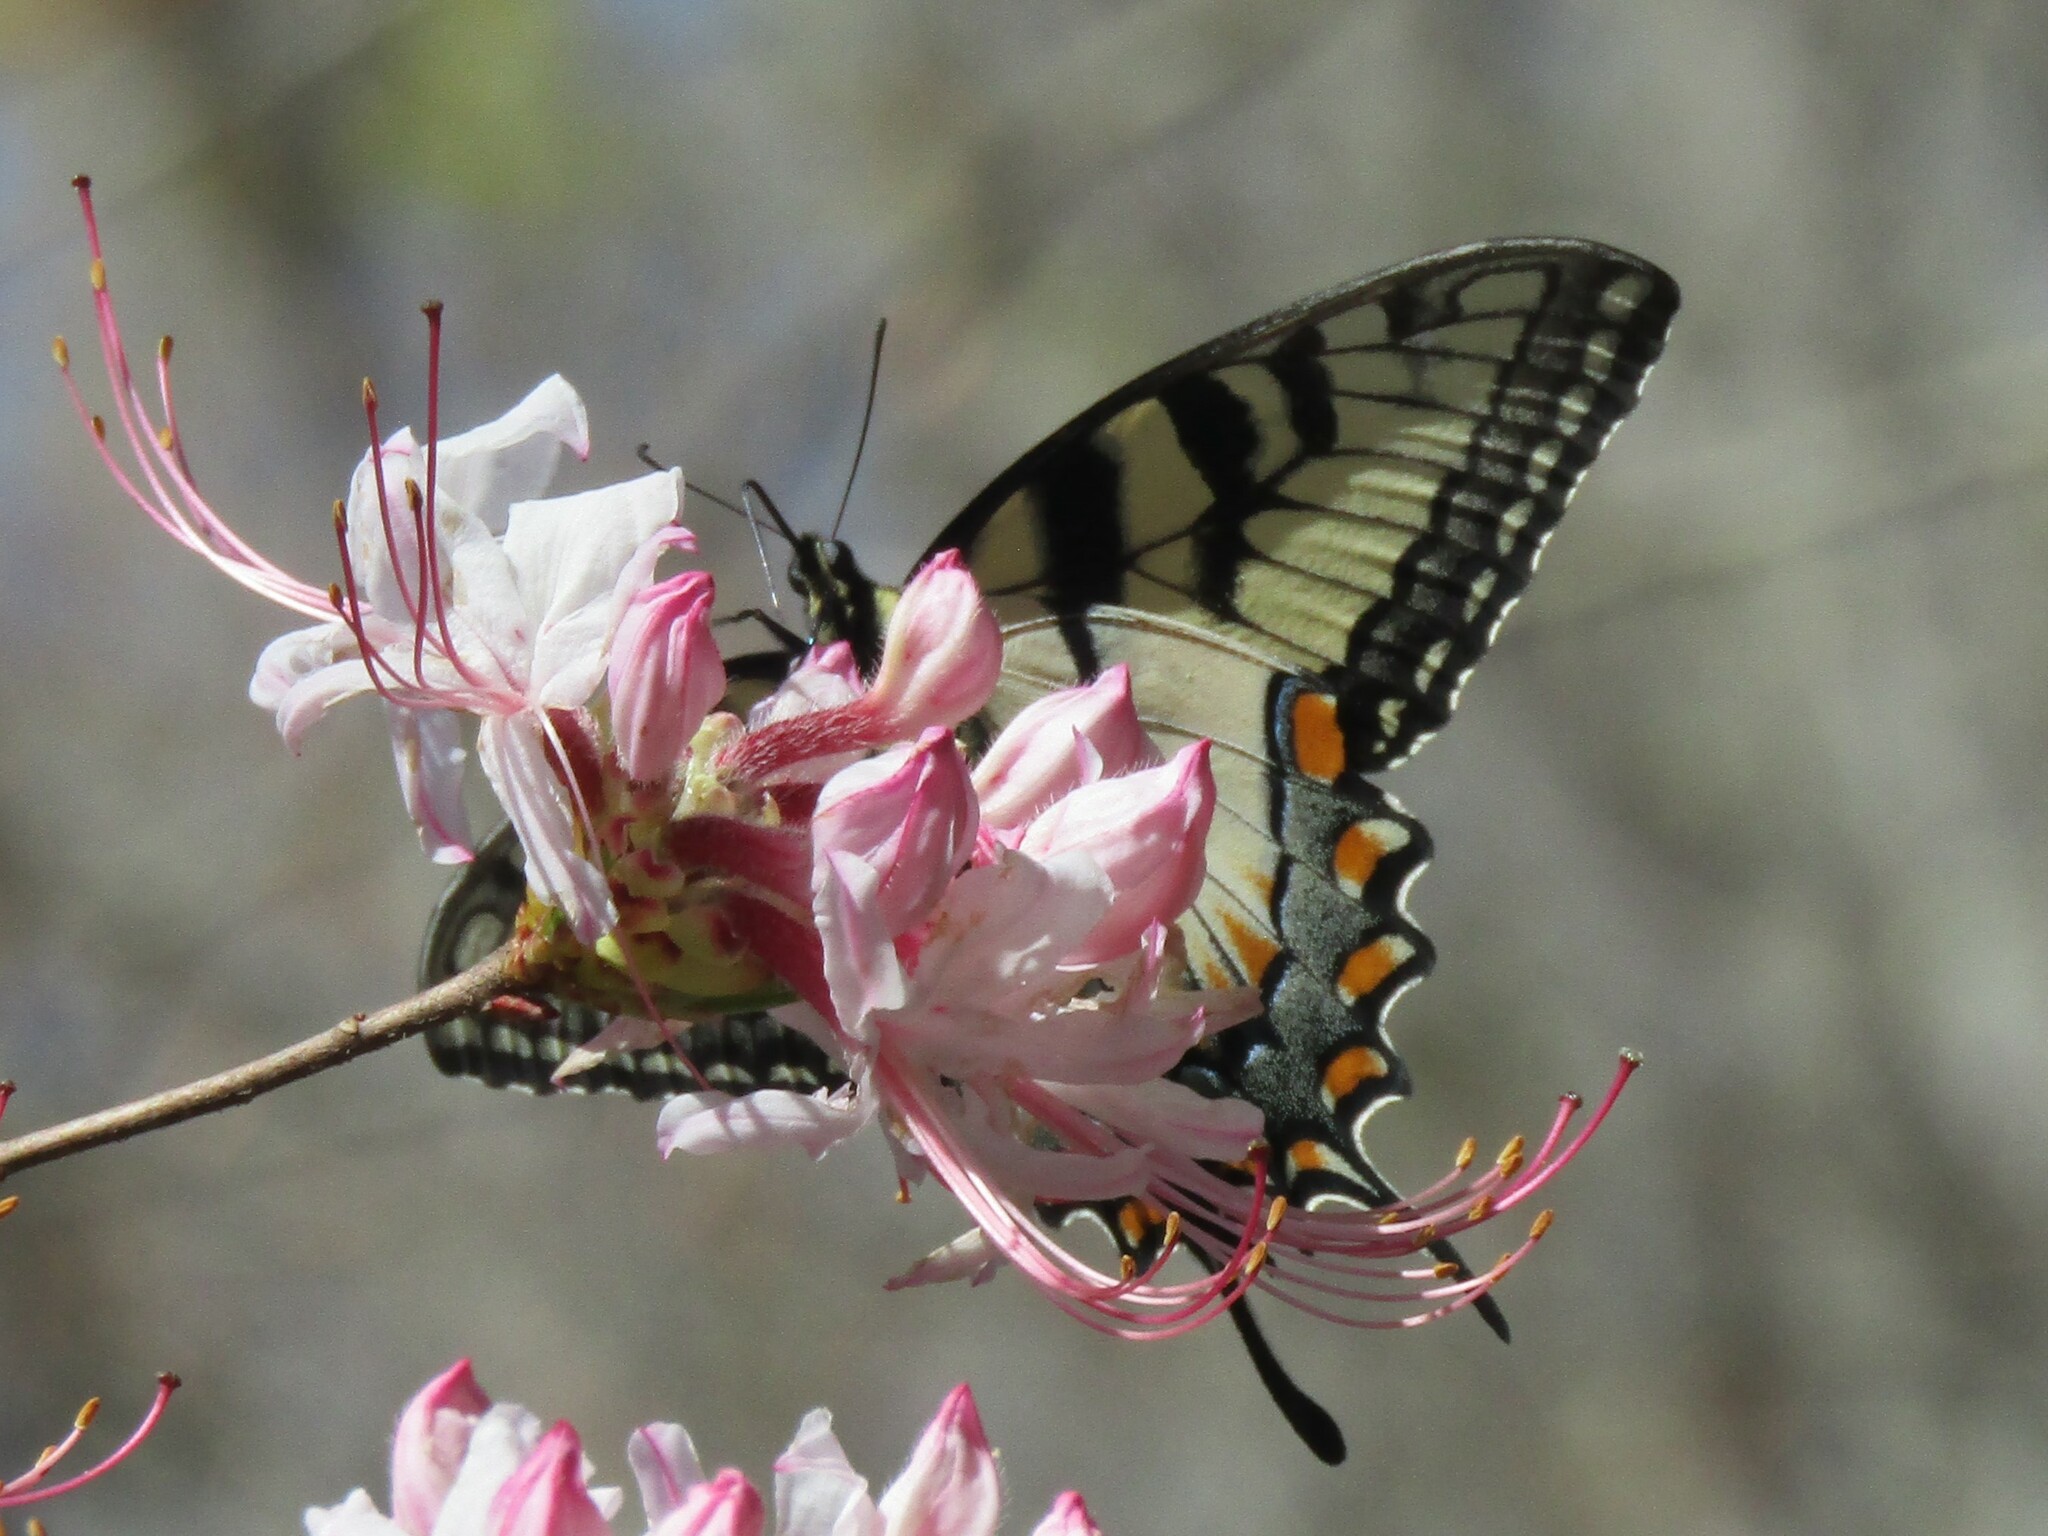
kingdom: Animalia
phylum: Arthropoda
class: Insecta
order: Lepidoptera
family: Papilionidae
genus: Papilio
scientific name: Papilio glaucus
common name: Tiger swallowtail
